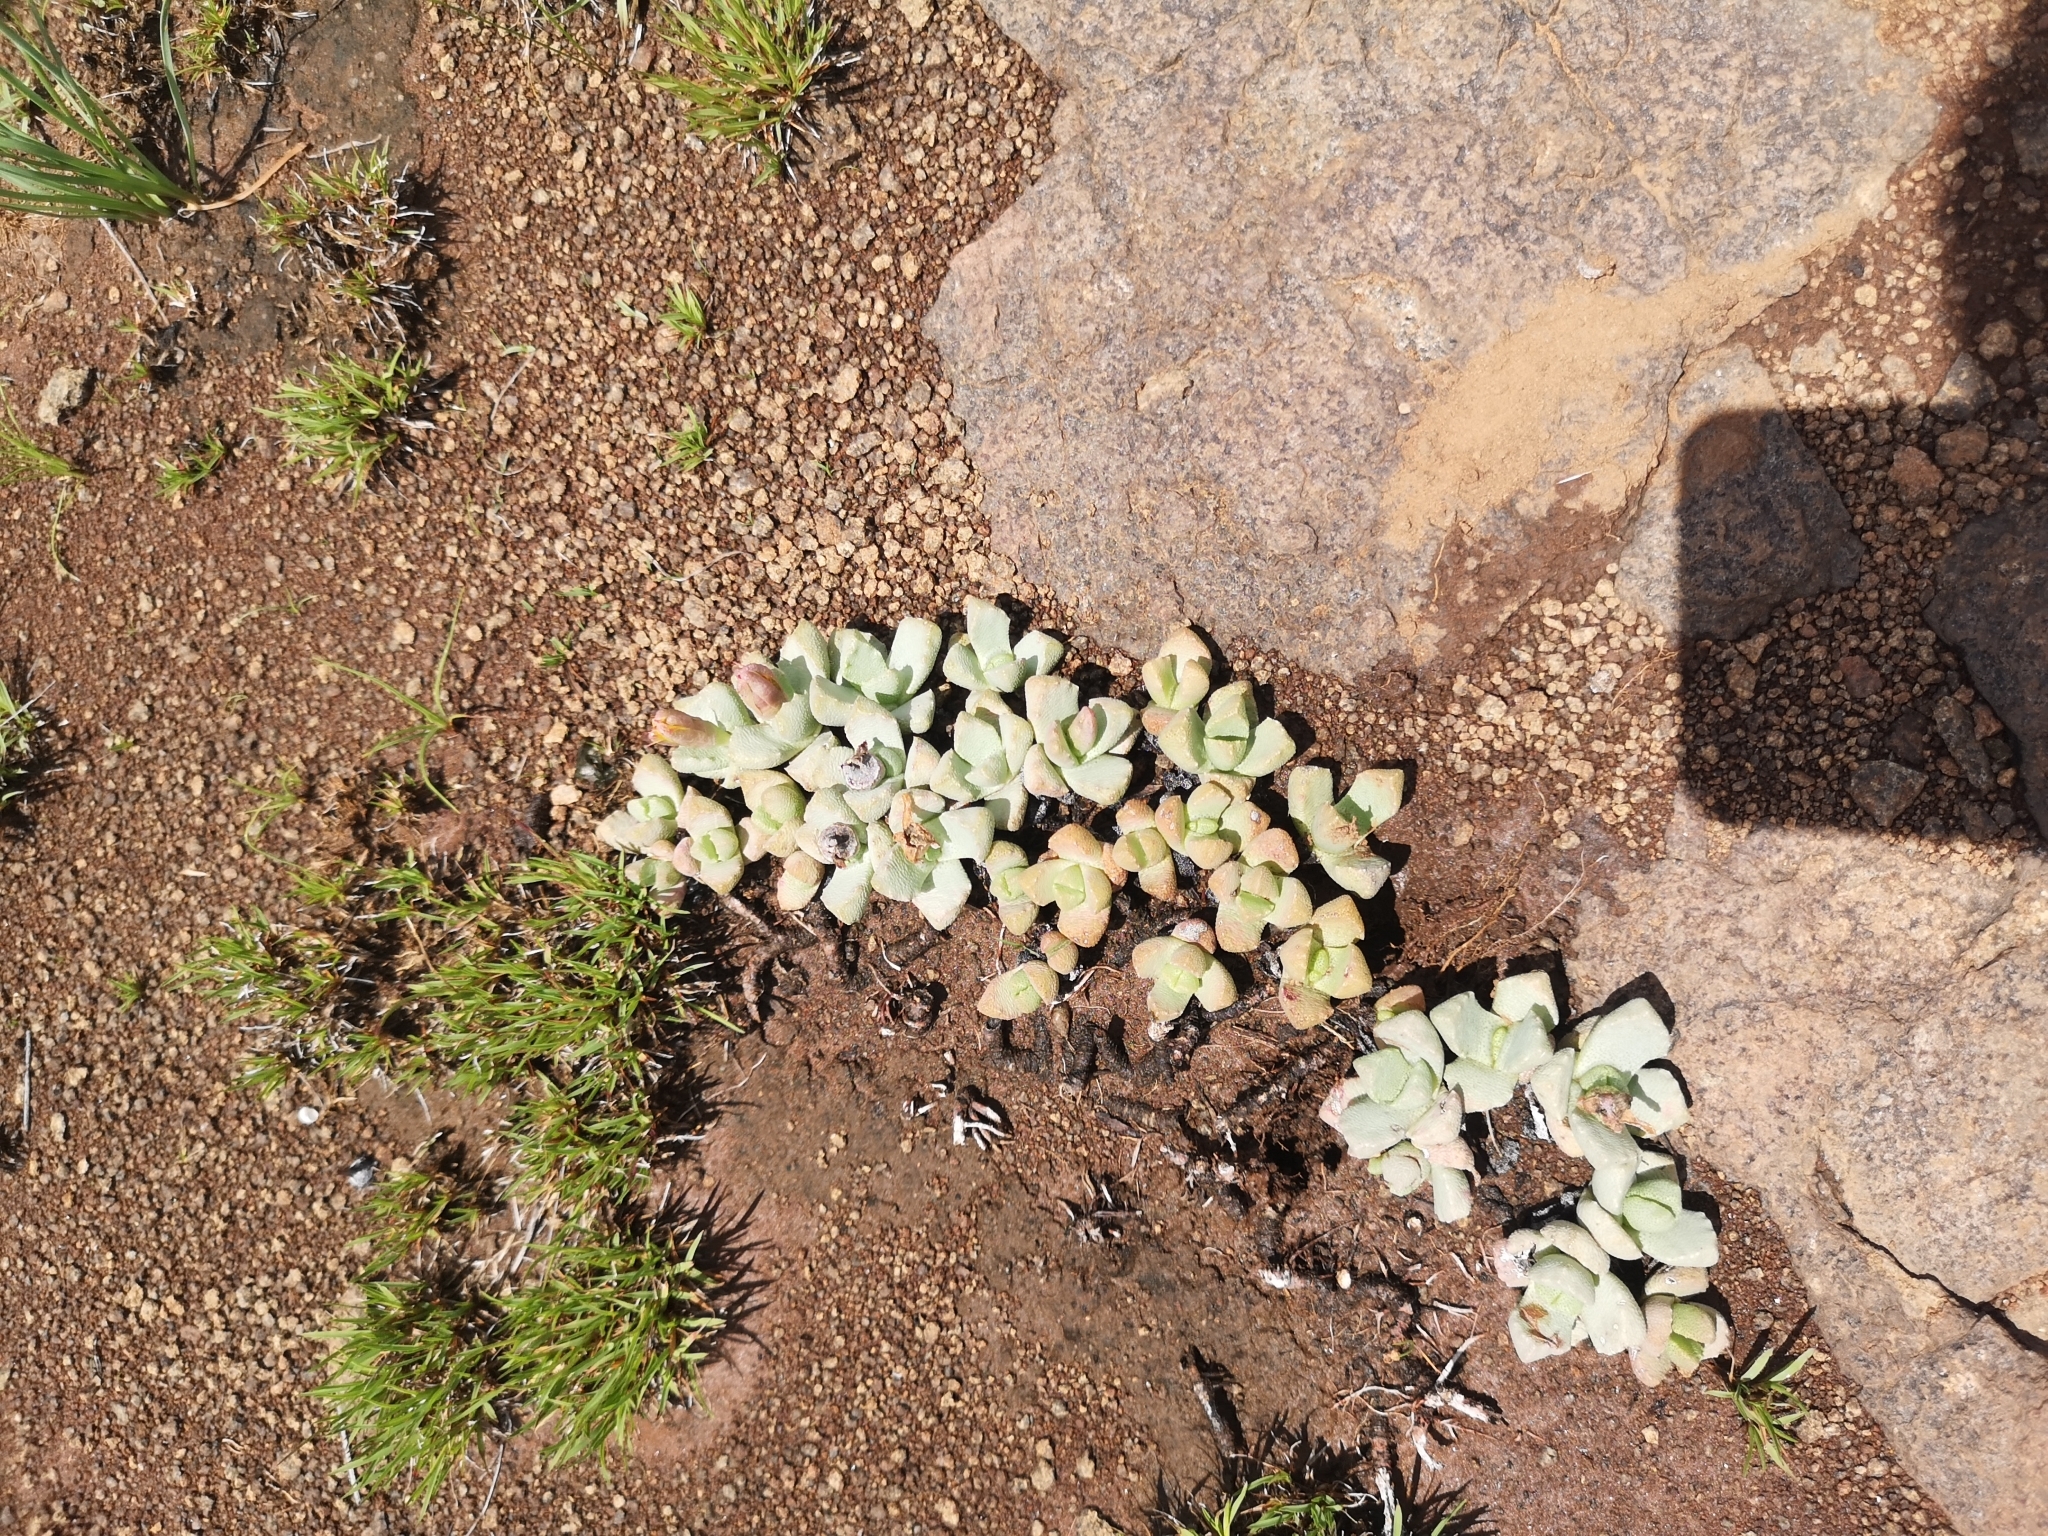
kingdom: Plantae
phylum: Tracheophyta
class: Magnoliopsida
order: Caryophyllales
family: Aizoaceae
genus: Stomatium
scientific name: Stomatium bolusiae
